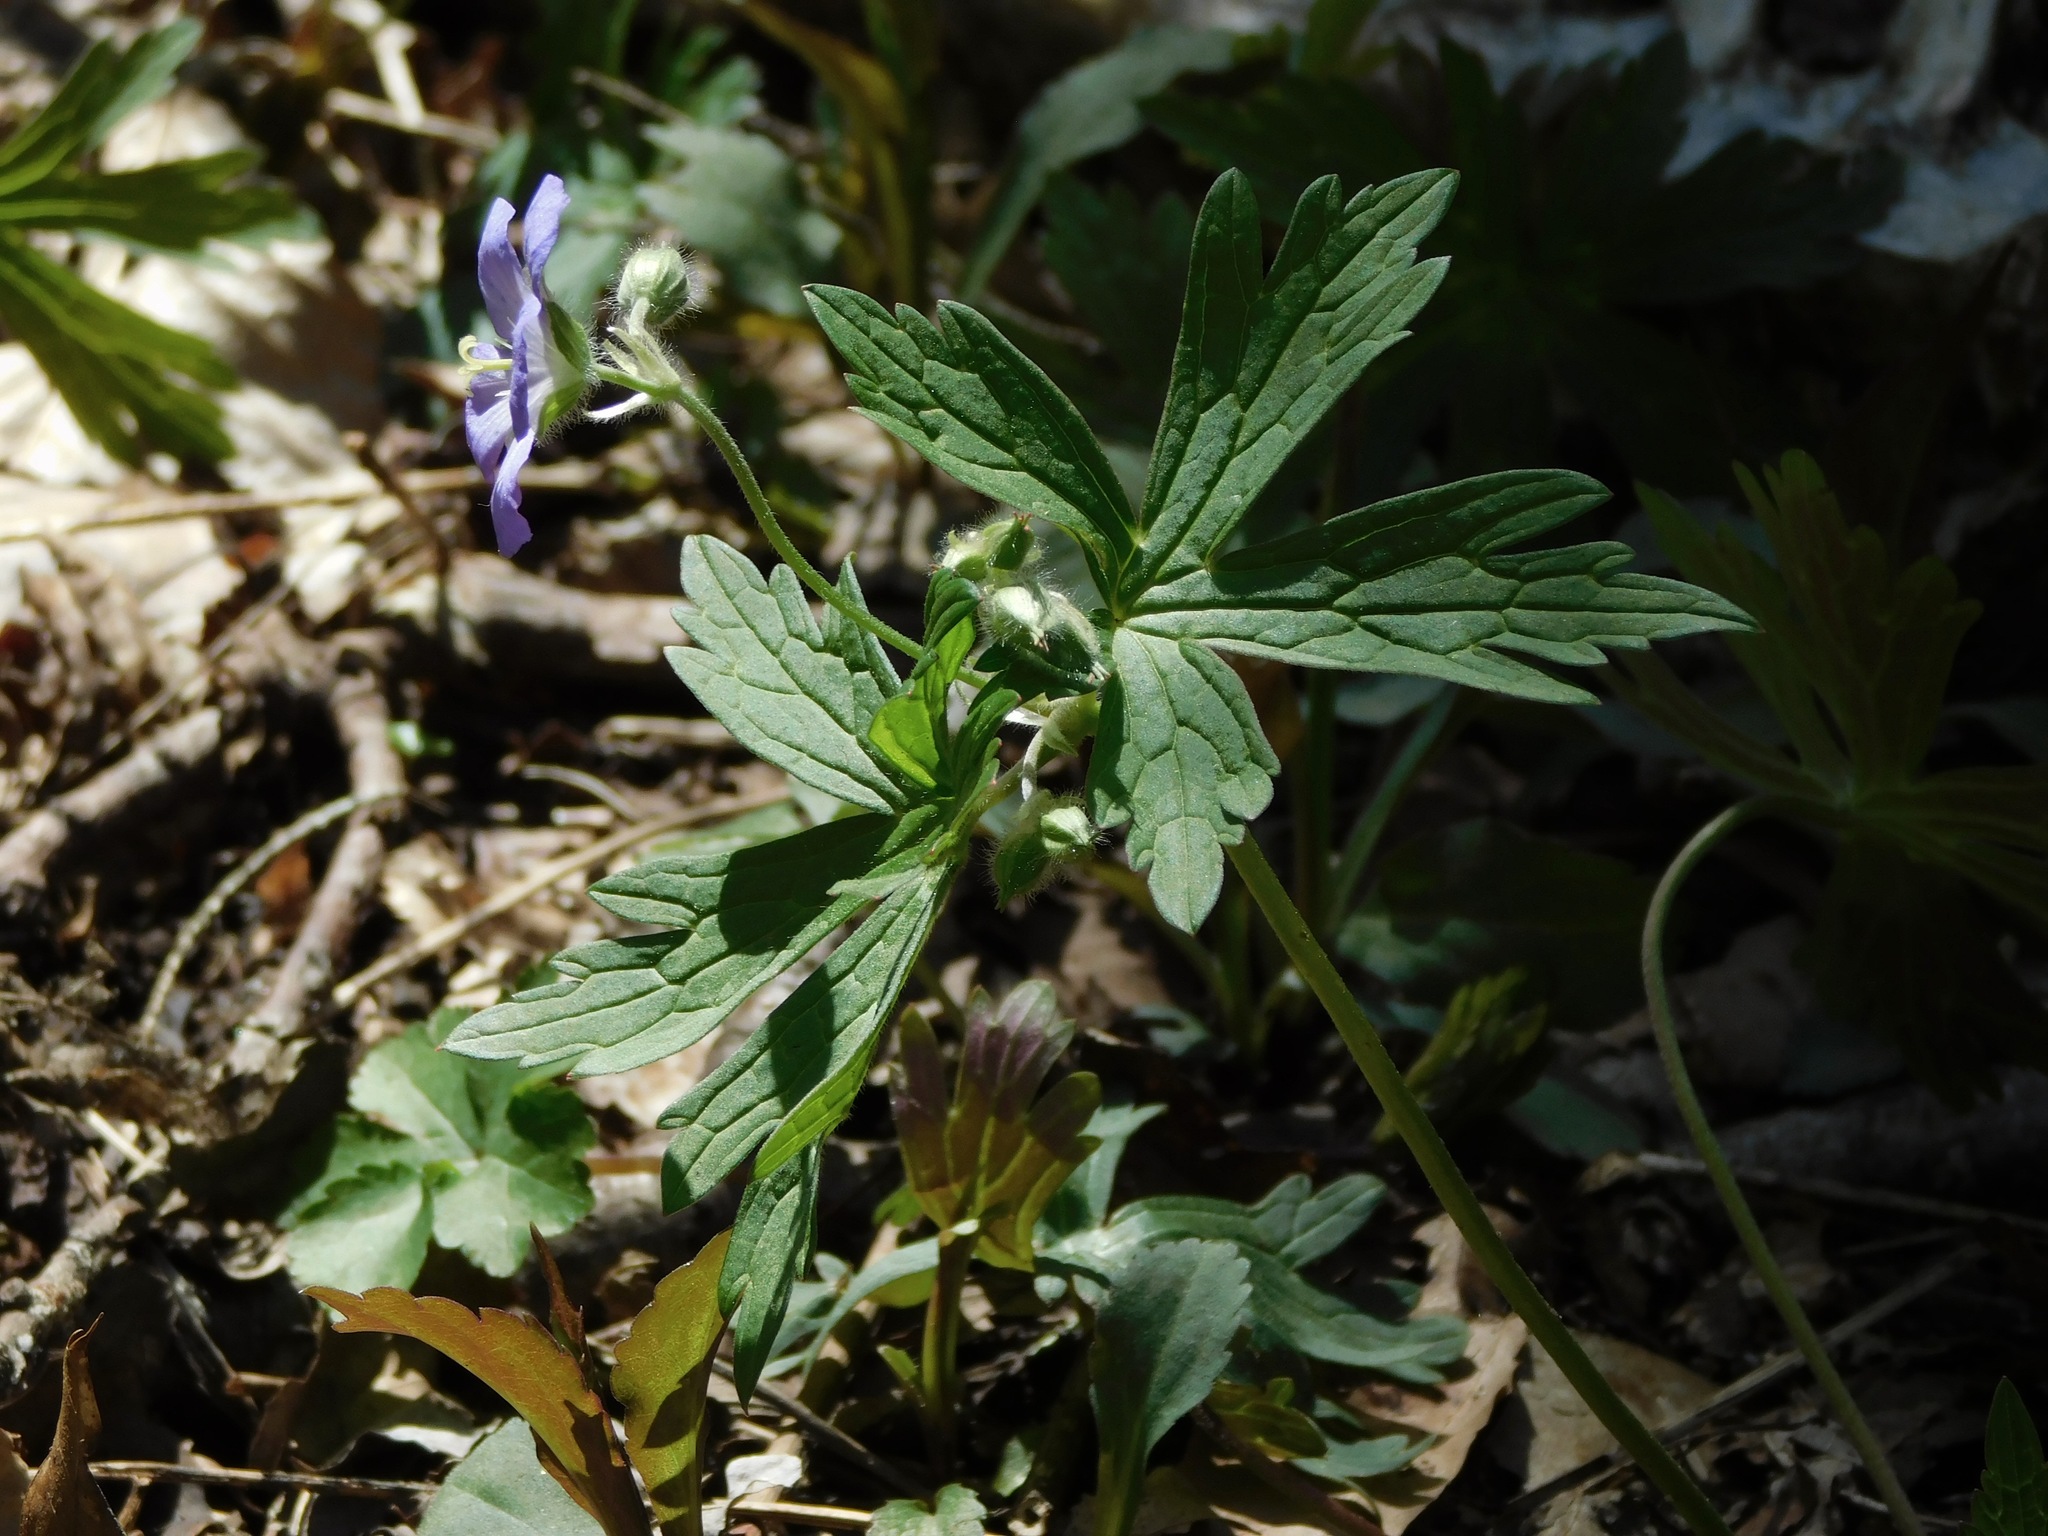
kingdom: Plantae
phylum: Tracheophyta
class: Magnoliopsida
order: Geraniales
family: Geraniaceae
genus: Geranium
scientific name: Geranium maculatum
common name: Spotted geranium
